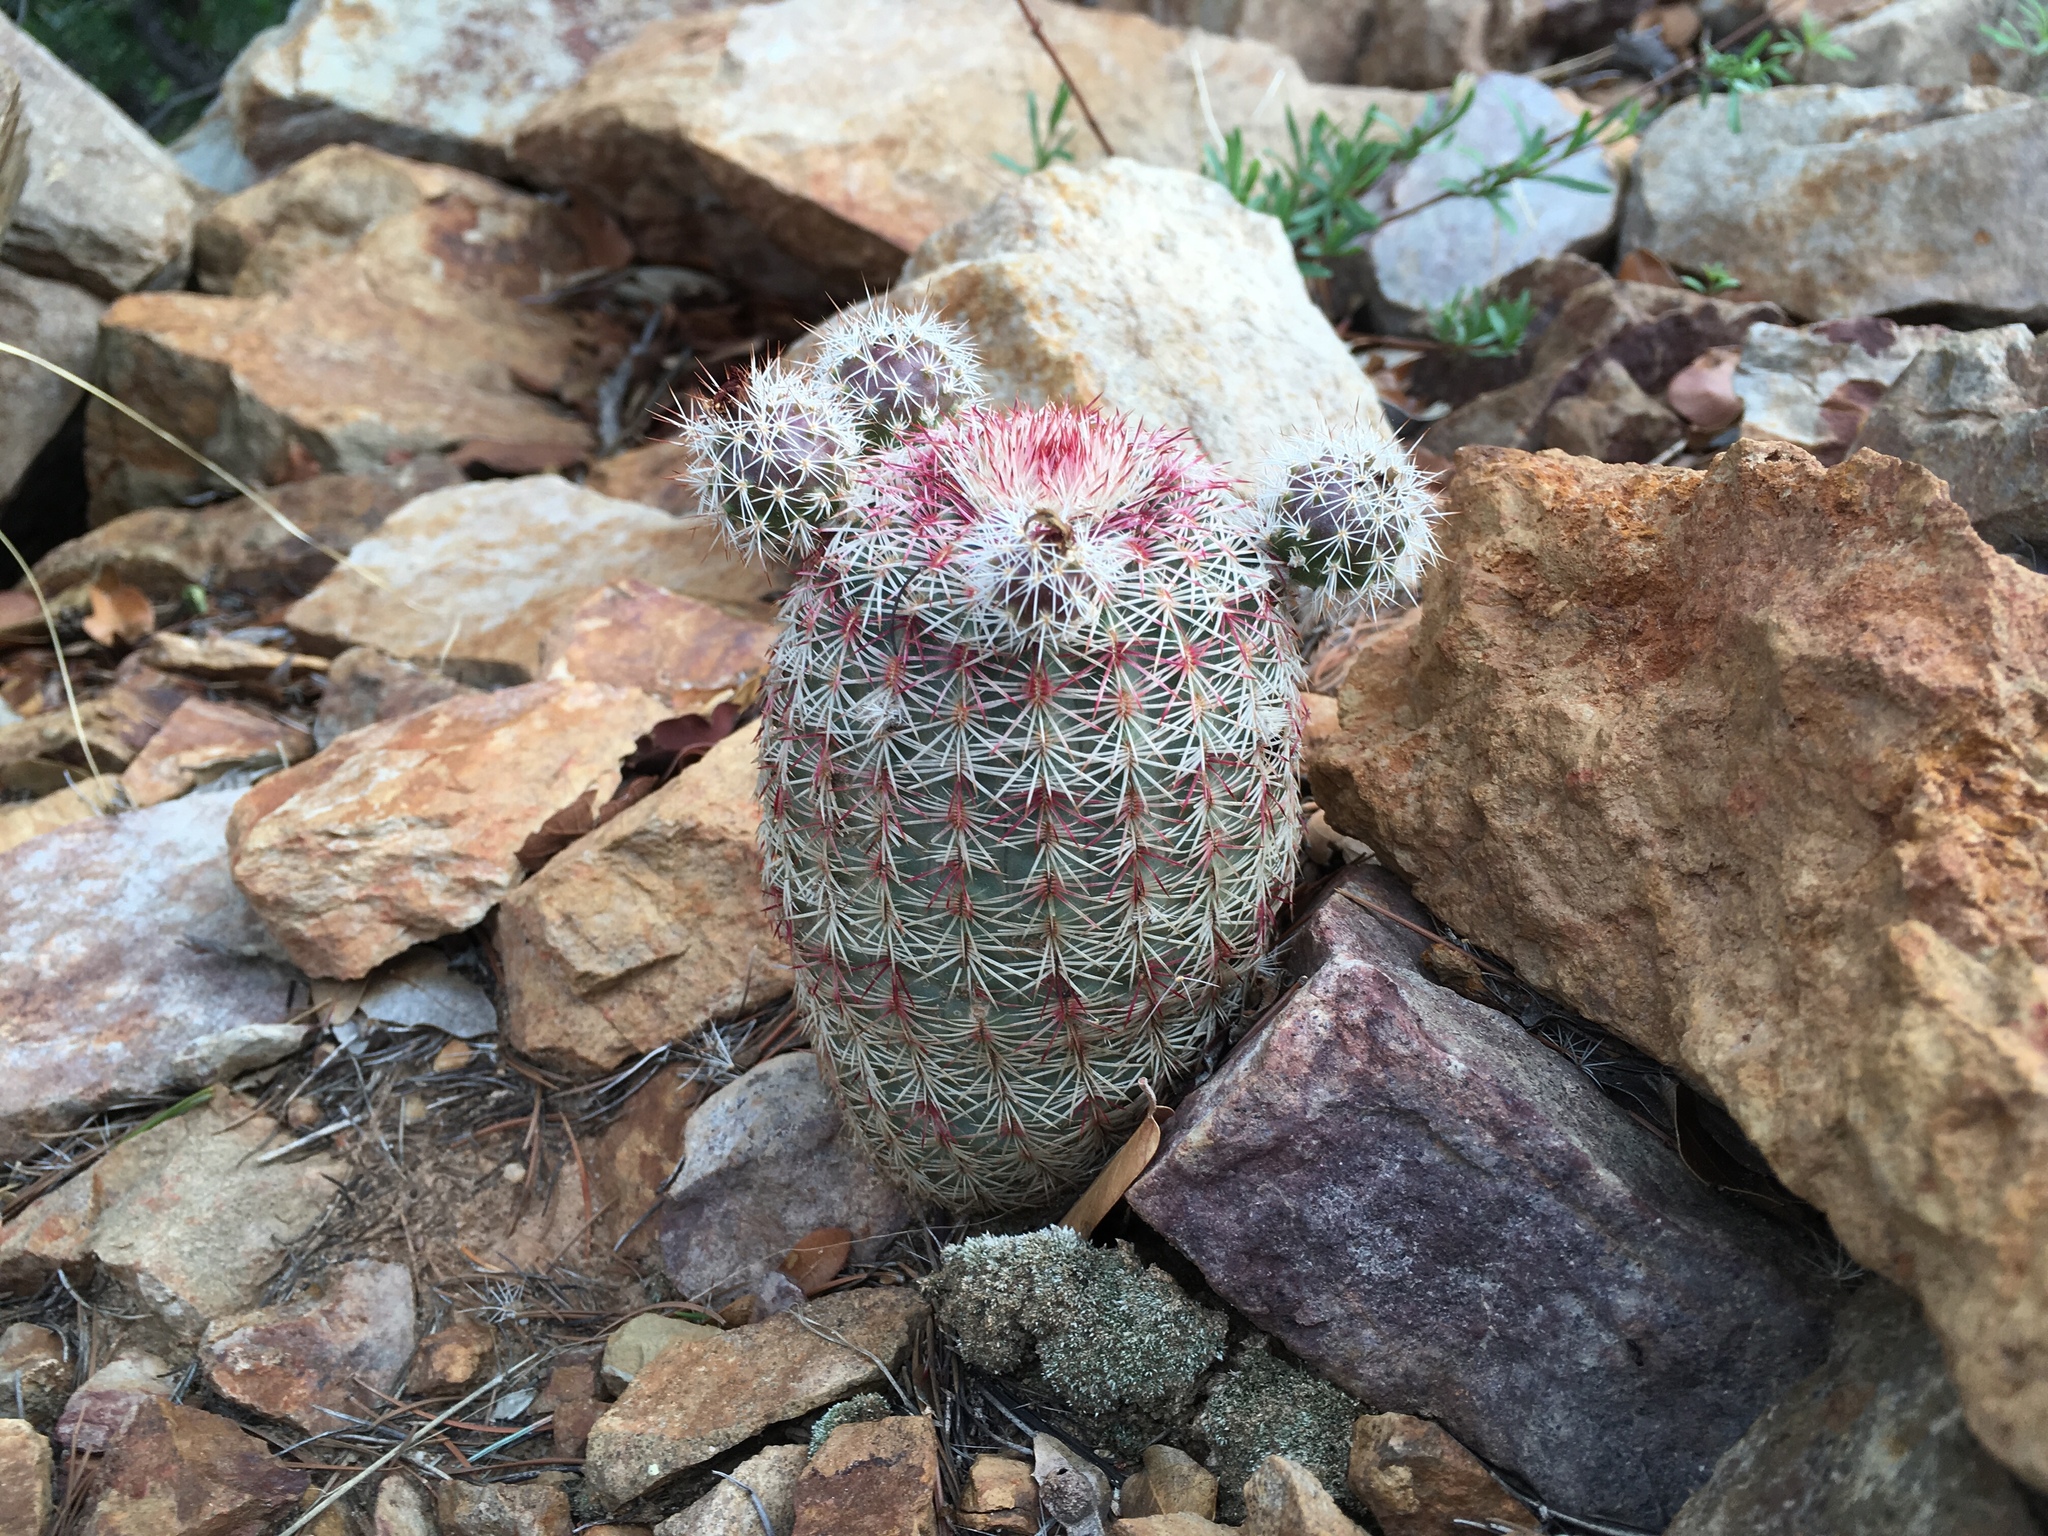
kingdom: Plantae
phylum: Tracheophyta
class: Magnoliopsida
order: Caryophyllales
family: Cactaceae
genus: Echinocereus
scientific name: Echinocereus rigidissimus
